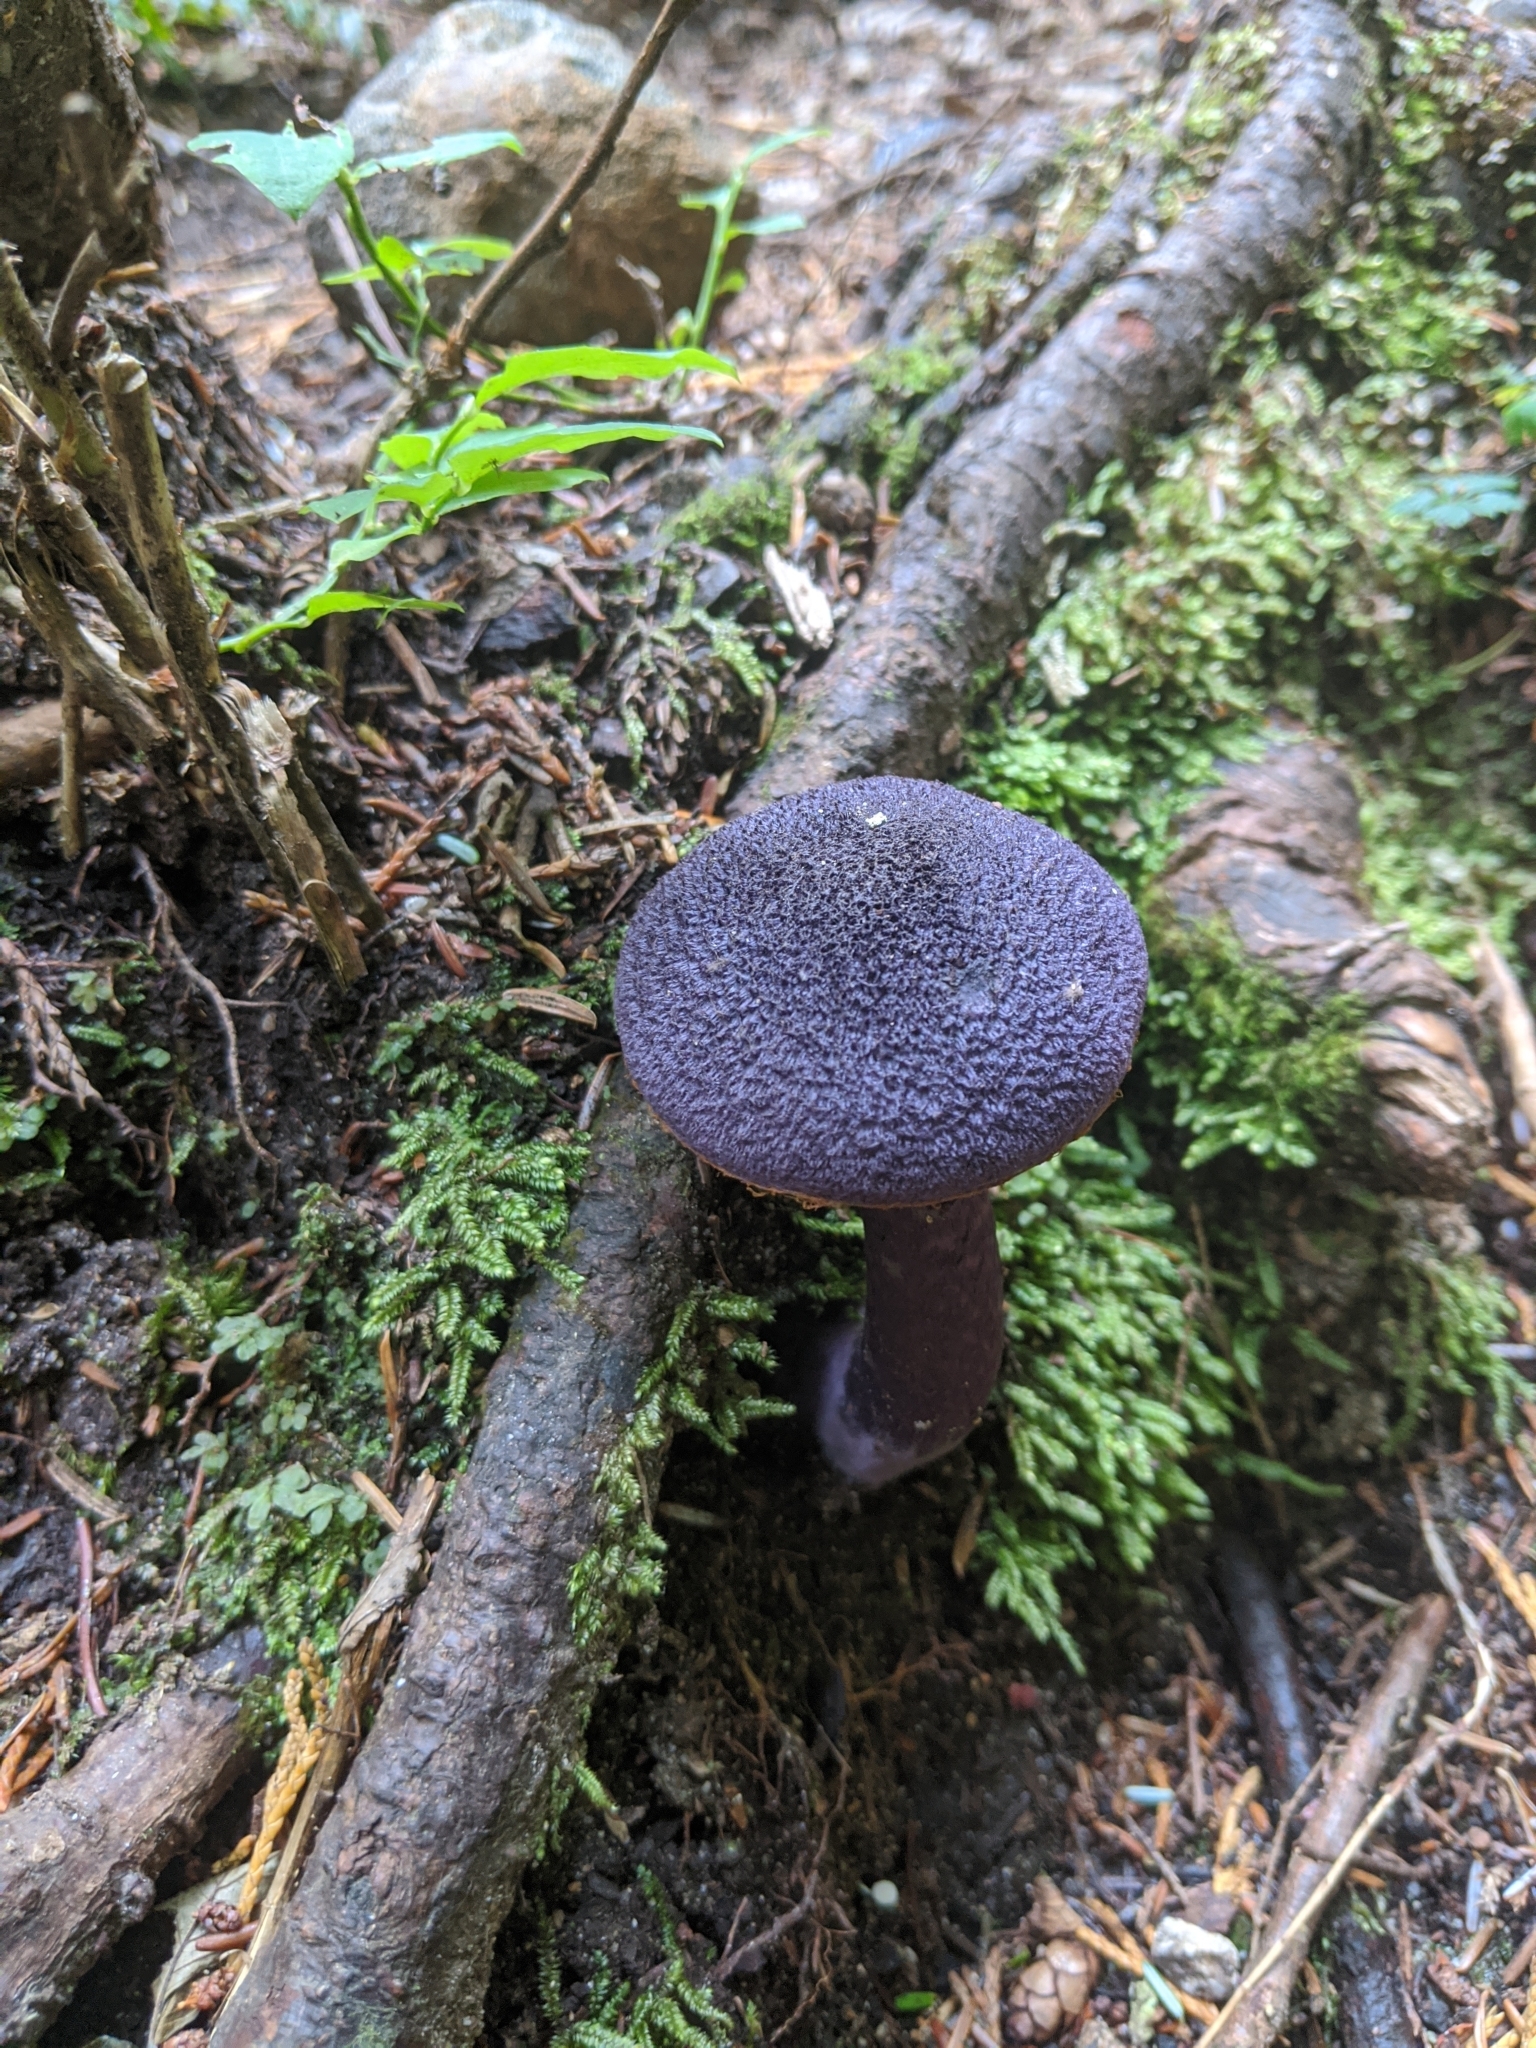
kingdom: Fungi
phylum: Basidiomycota
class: Agaricomycetes
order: Agaricales
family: Cortinariaceae
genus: Cortinarius
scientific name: Cortinarius violaceus
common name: Violet webcap
